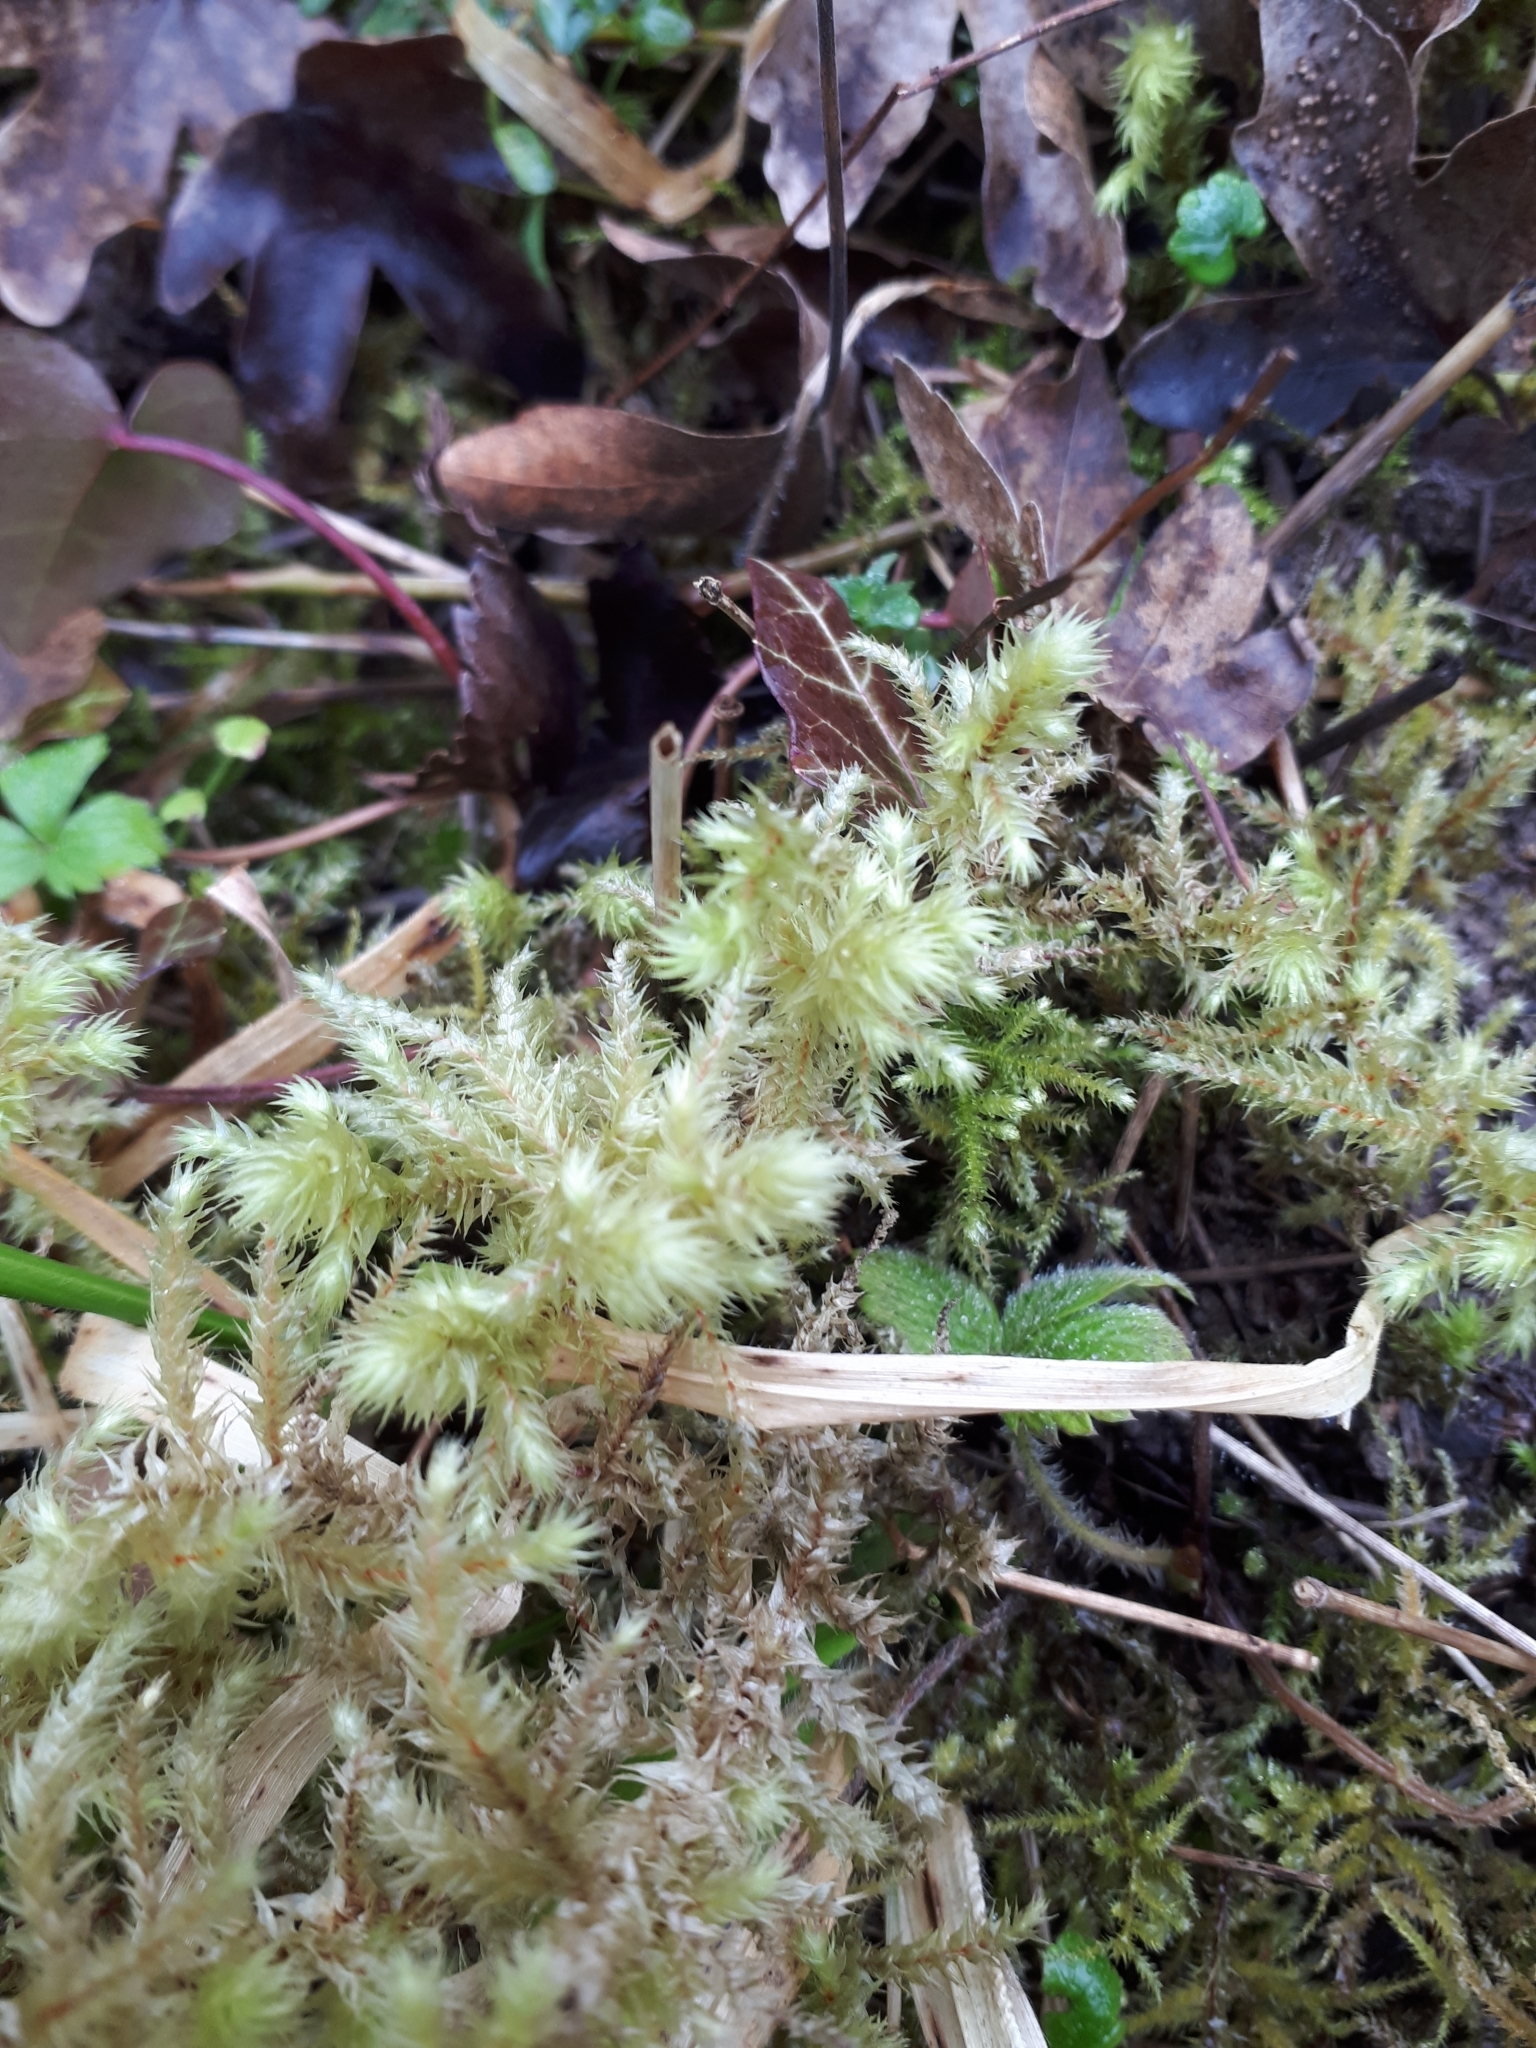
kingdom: Plantae
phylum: Bryophyta
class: Bryopsida
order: Hypnales
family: Hylocomiaceae
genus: Hylocomiadelphus
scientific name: Hylocomiadelphus triquetrus
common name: Rough goose neck moss
